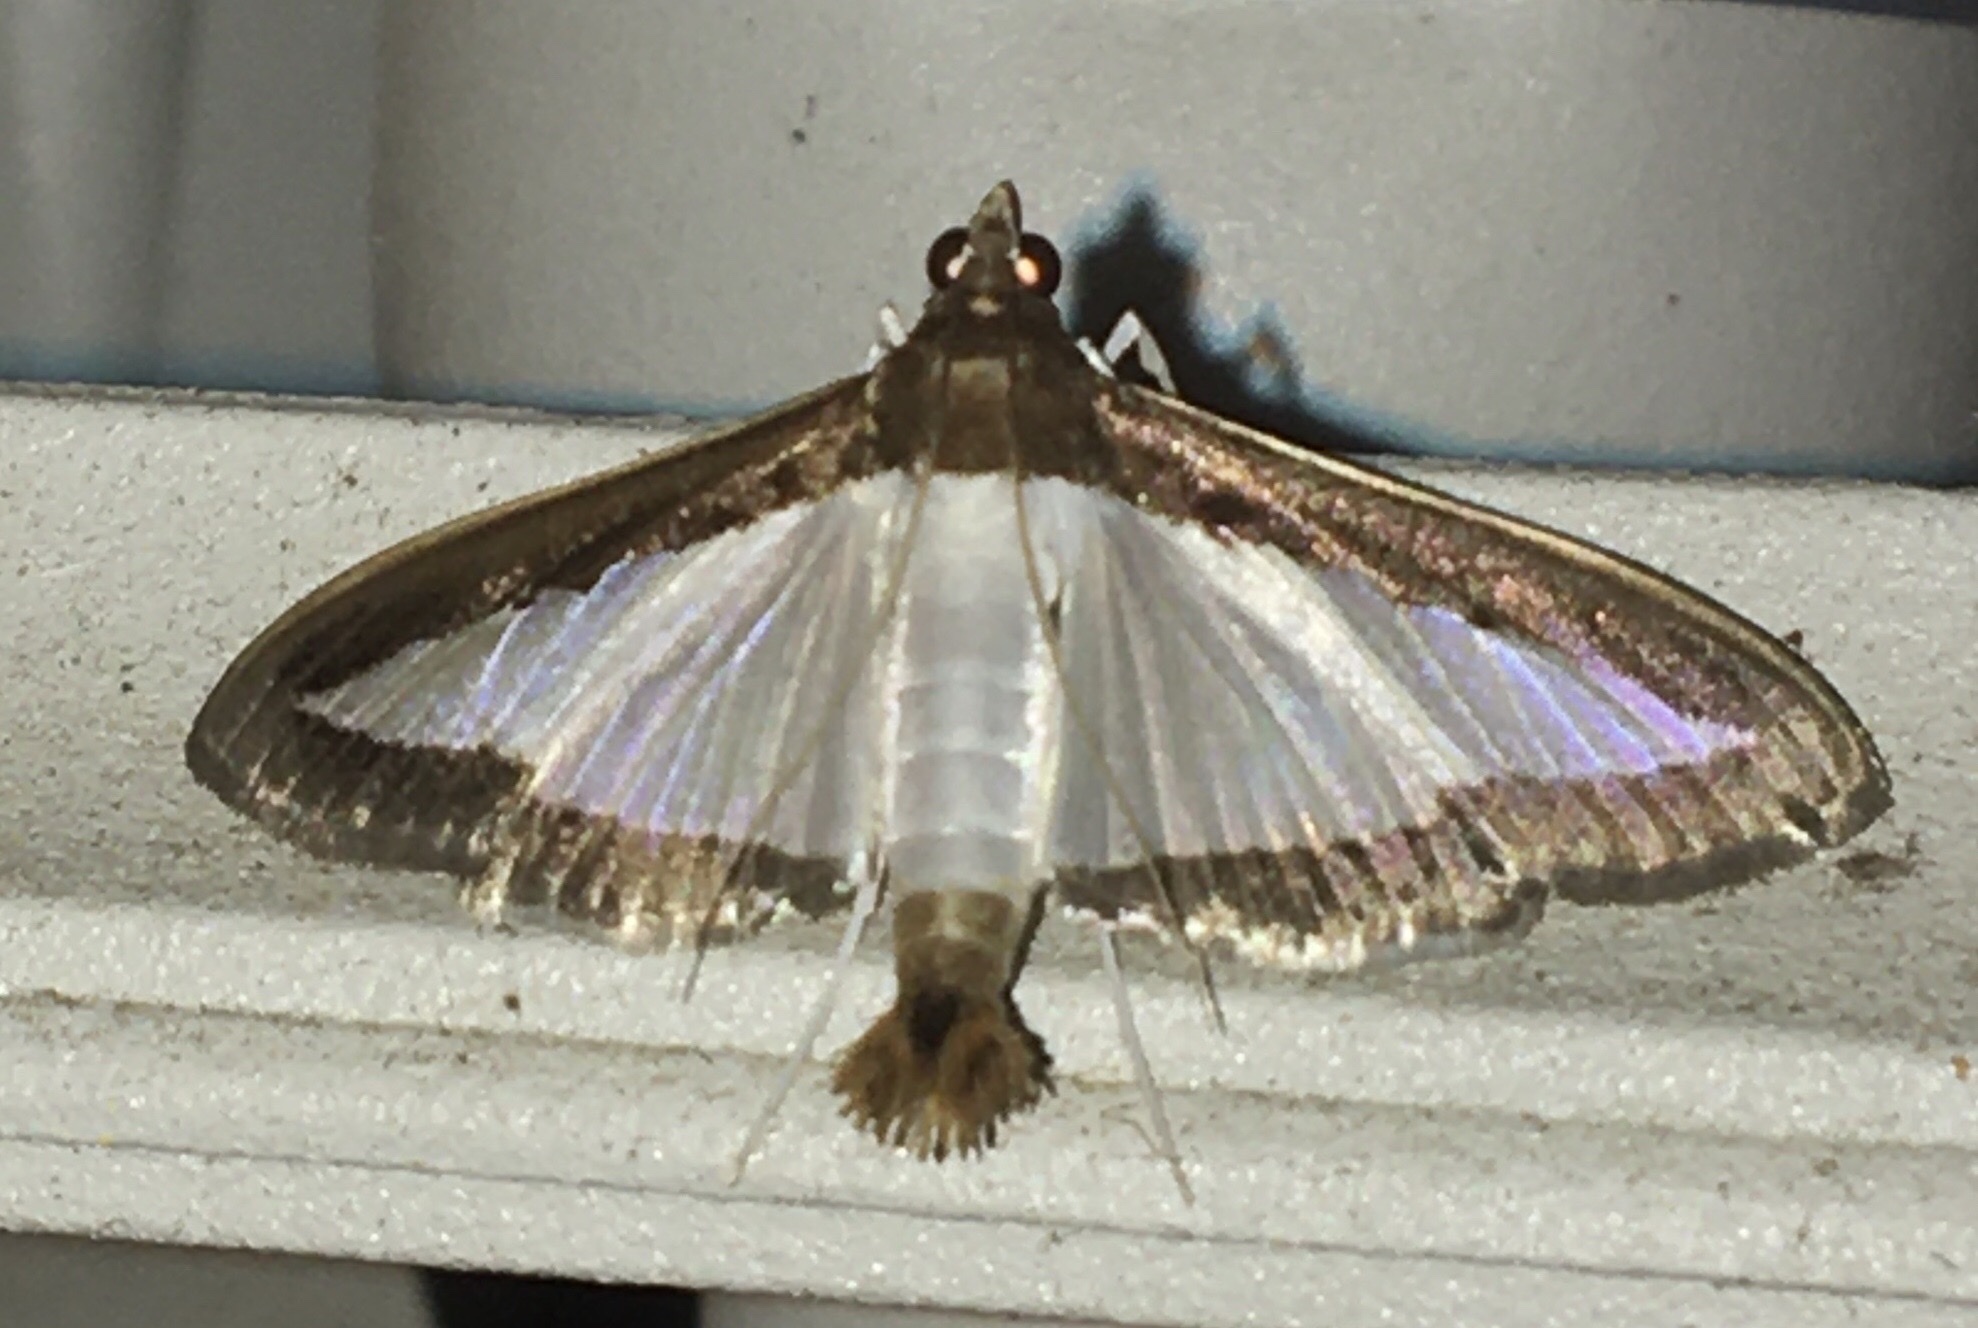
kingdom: Animalia
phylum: Arthropoda
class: Insecta
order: Lepidoptera
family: Crambidae
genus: Diaphania
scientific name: Diaphania hyalinata
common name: Melonworm
